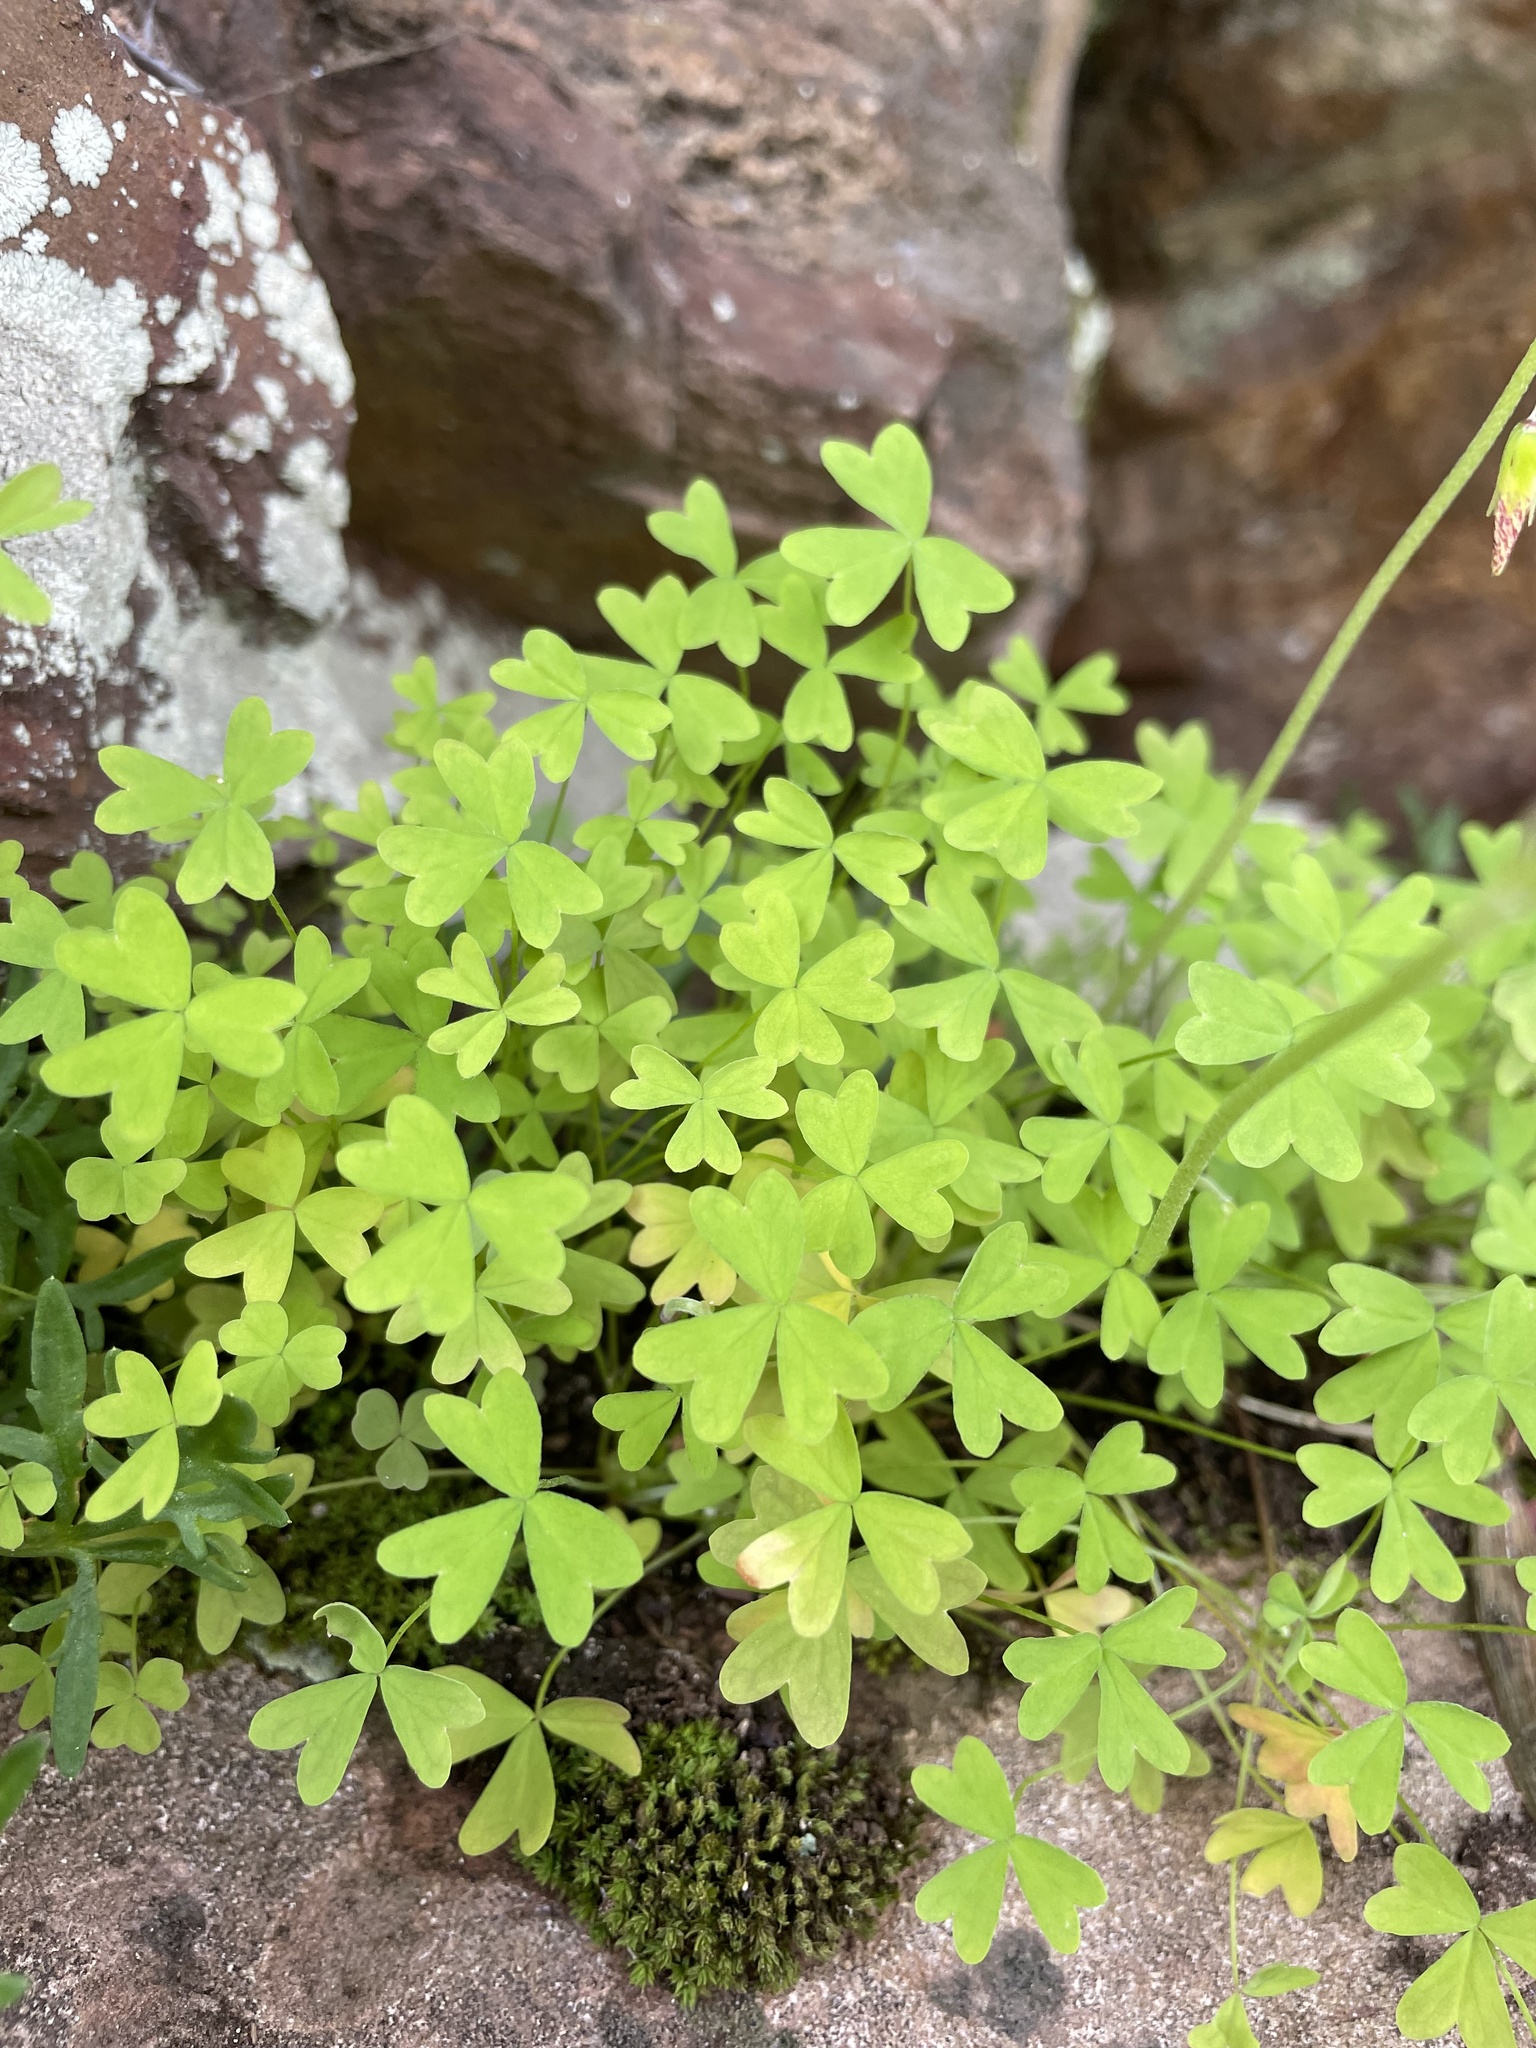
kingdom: Plantae
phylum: Tracheophyta
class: Magnoliopsida
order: Oxalidales
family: Oxalidaceae
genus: Oxalis
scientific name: Oxalis obtusa
